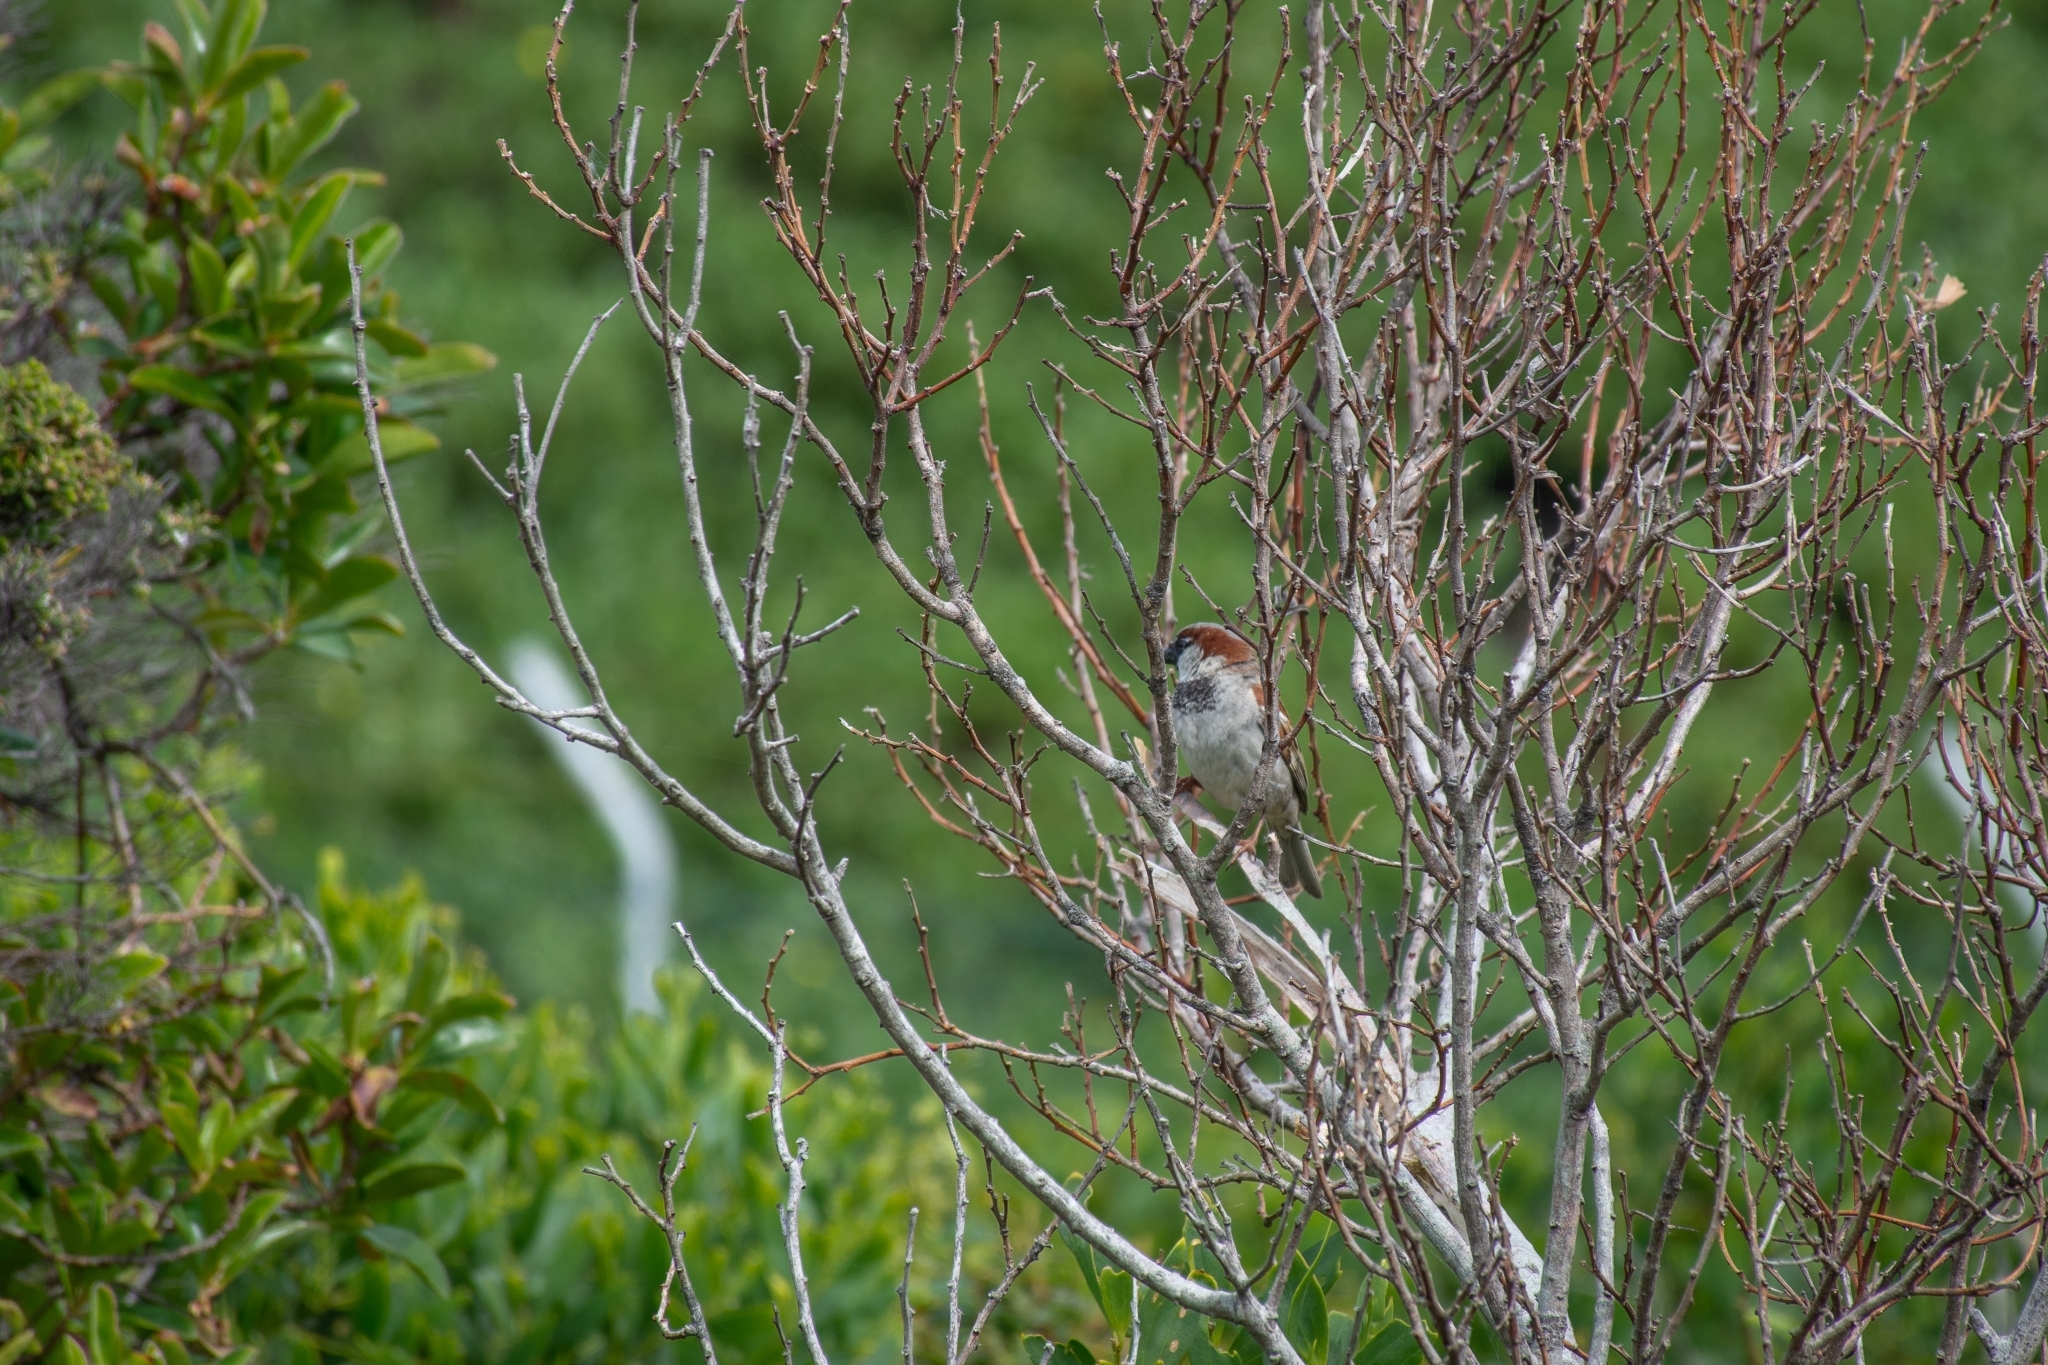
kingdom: Animalia
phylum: Chordata
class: Aves
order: Passeriformes
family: Passeridae
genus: Passer
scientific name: Passer domesticus
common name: House sparrow
